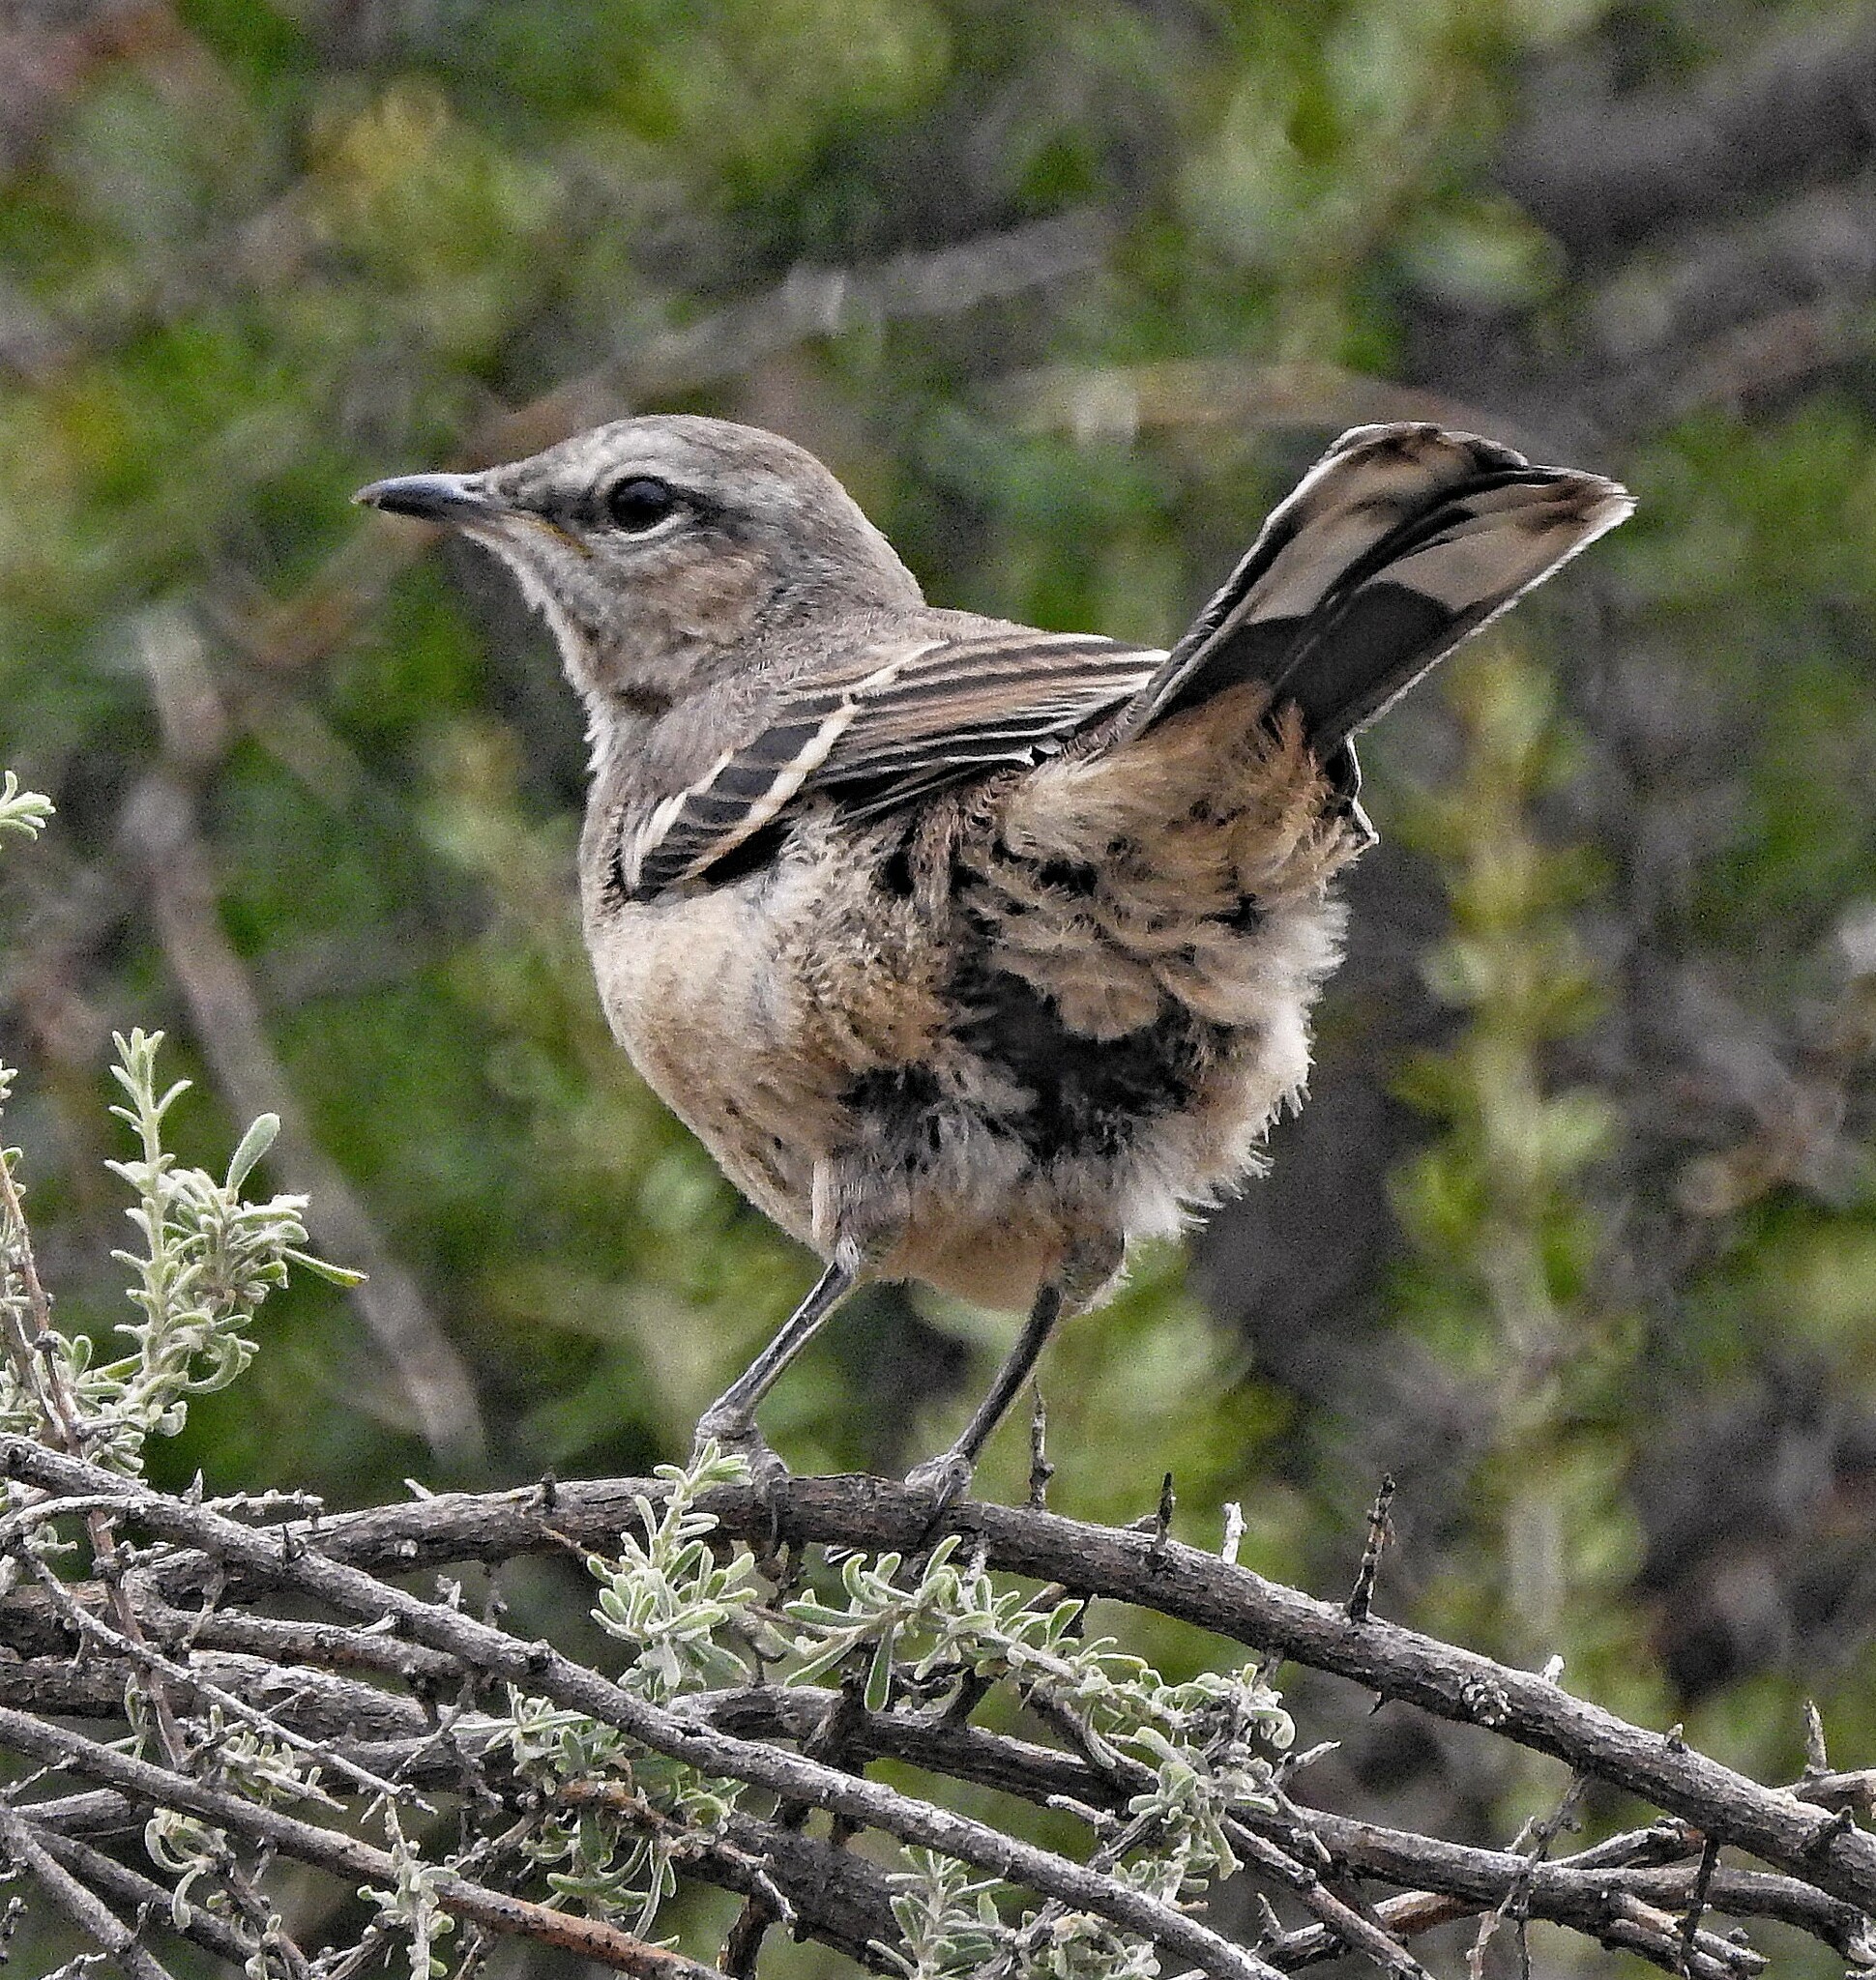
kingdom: Animalia
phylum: Chordata
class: Aves
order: Passeriformes
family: Mimidae
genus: Mimus
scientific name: Mimus patagonicus
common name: Patagonian mockingbird
